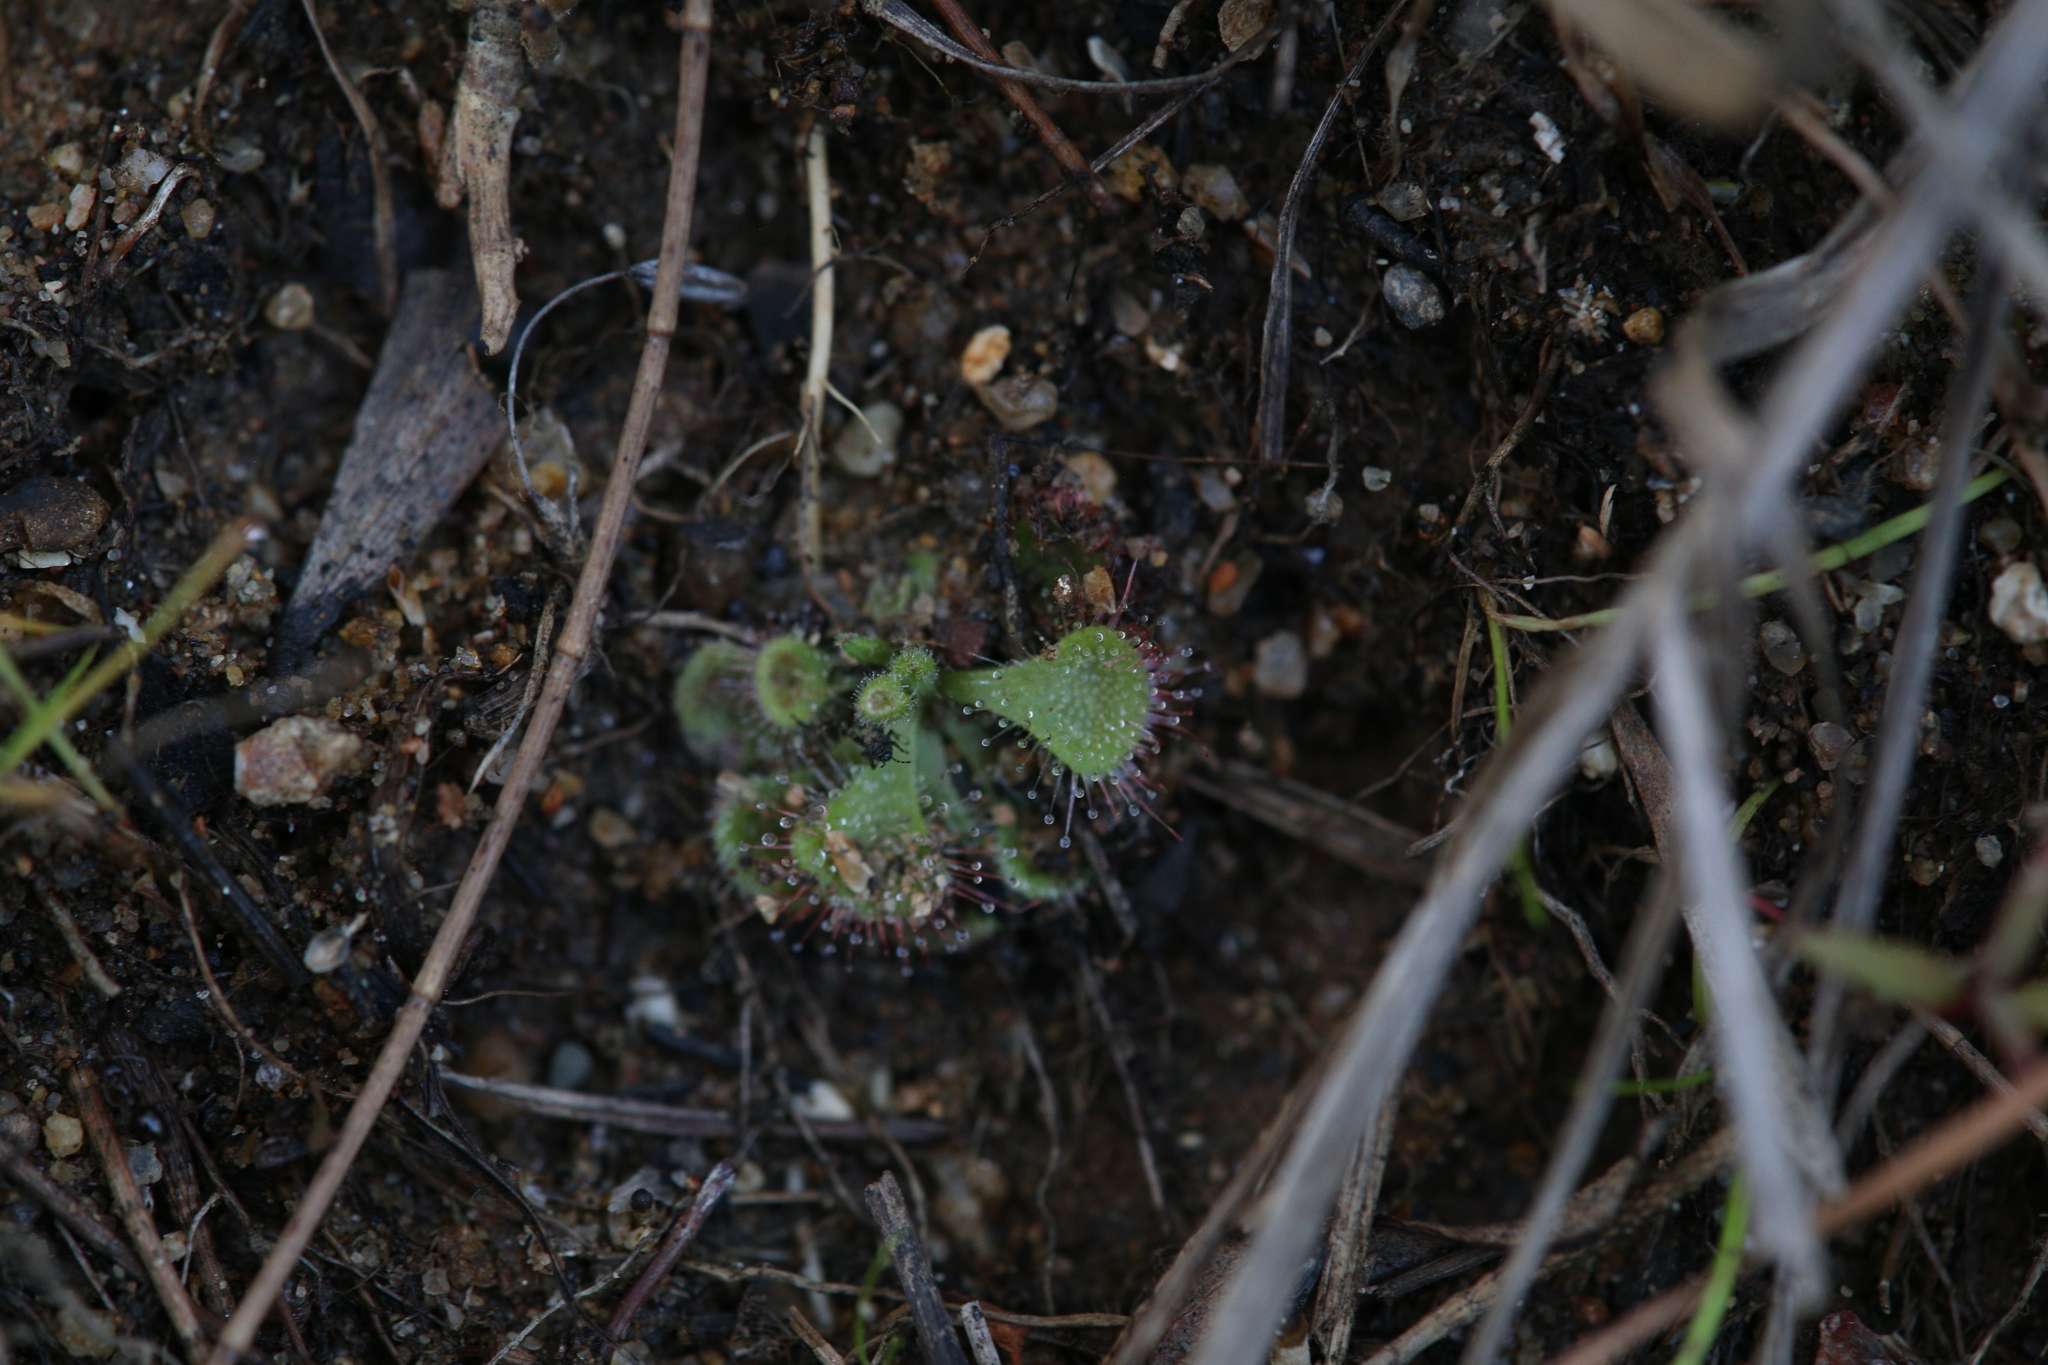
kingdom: Plantae
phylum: Tracheophyta
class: Magnoliopsida
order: Caryophyllales
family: Droseraceae
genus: Drosera
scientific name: Drosera spatulata
